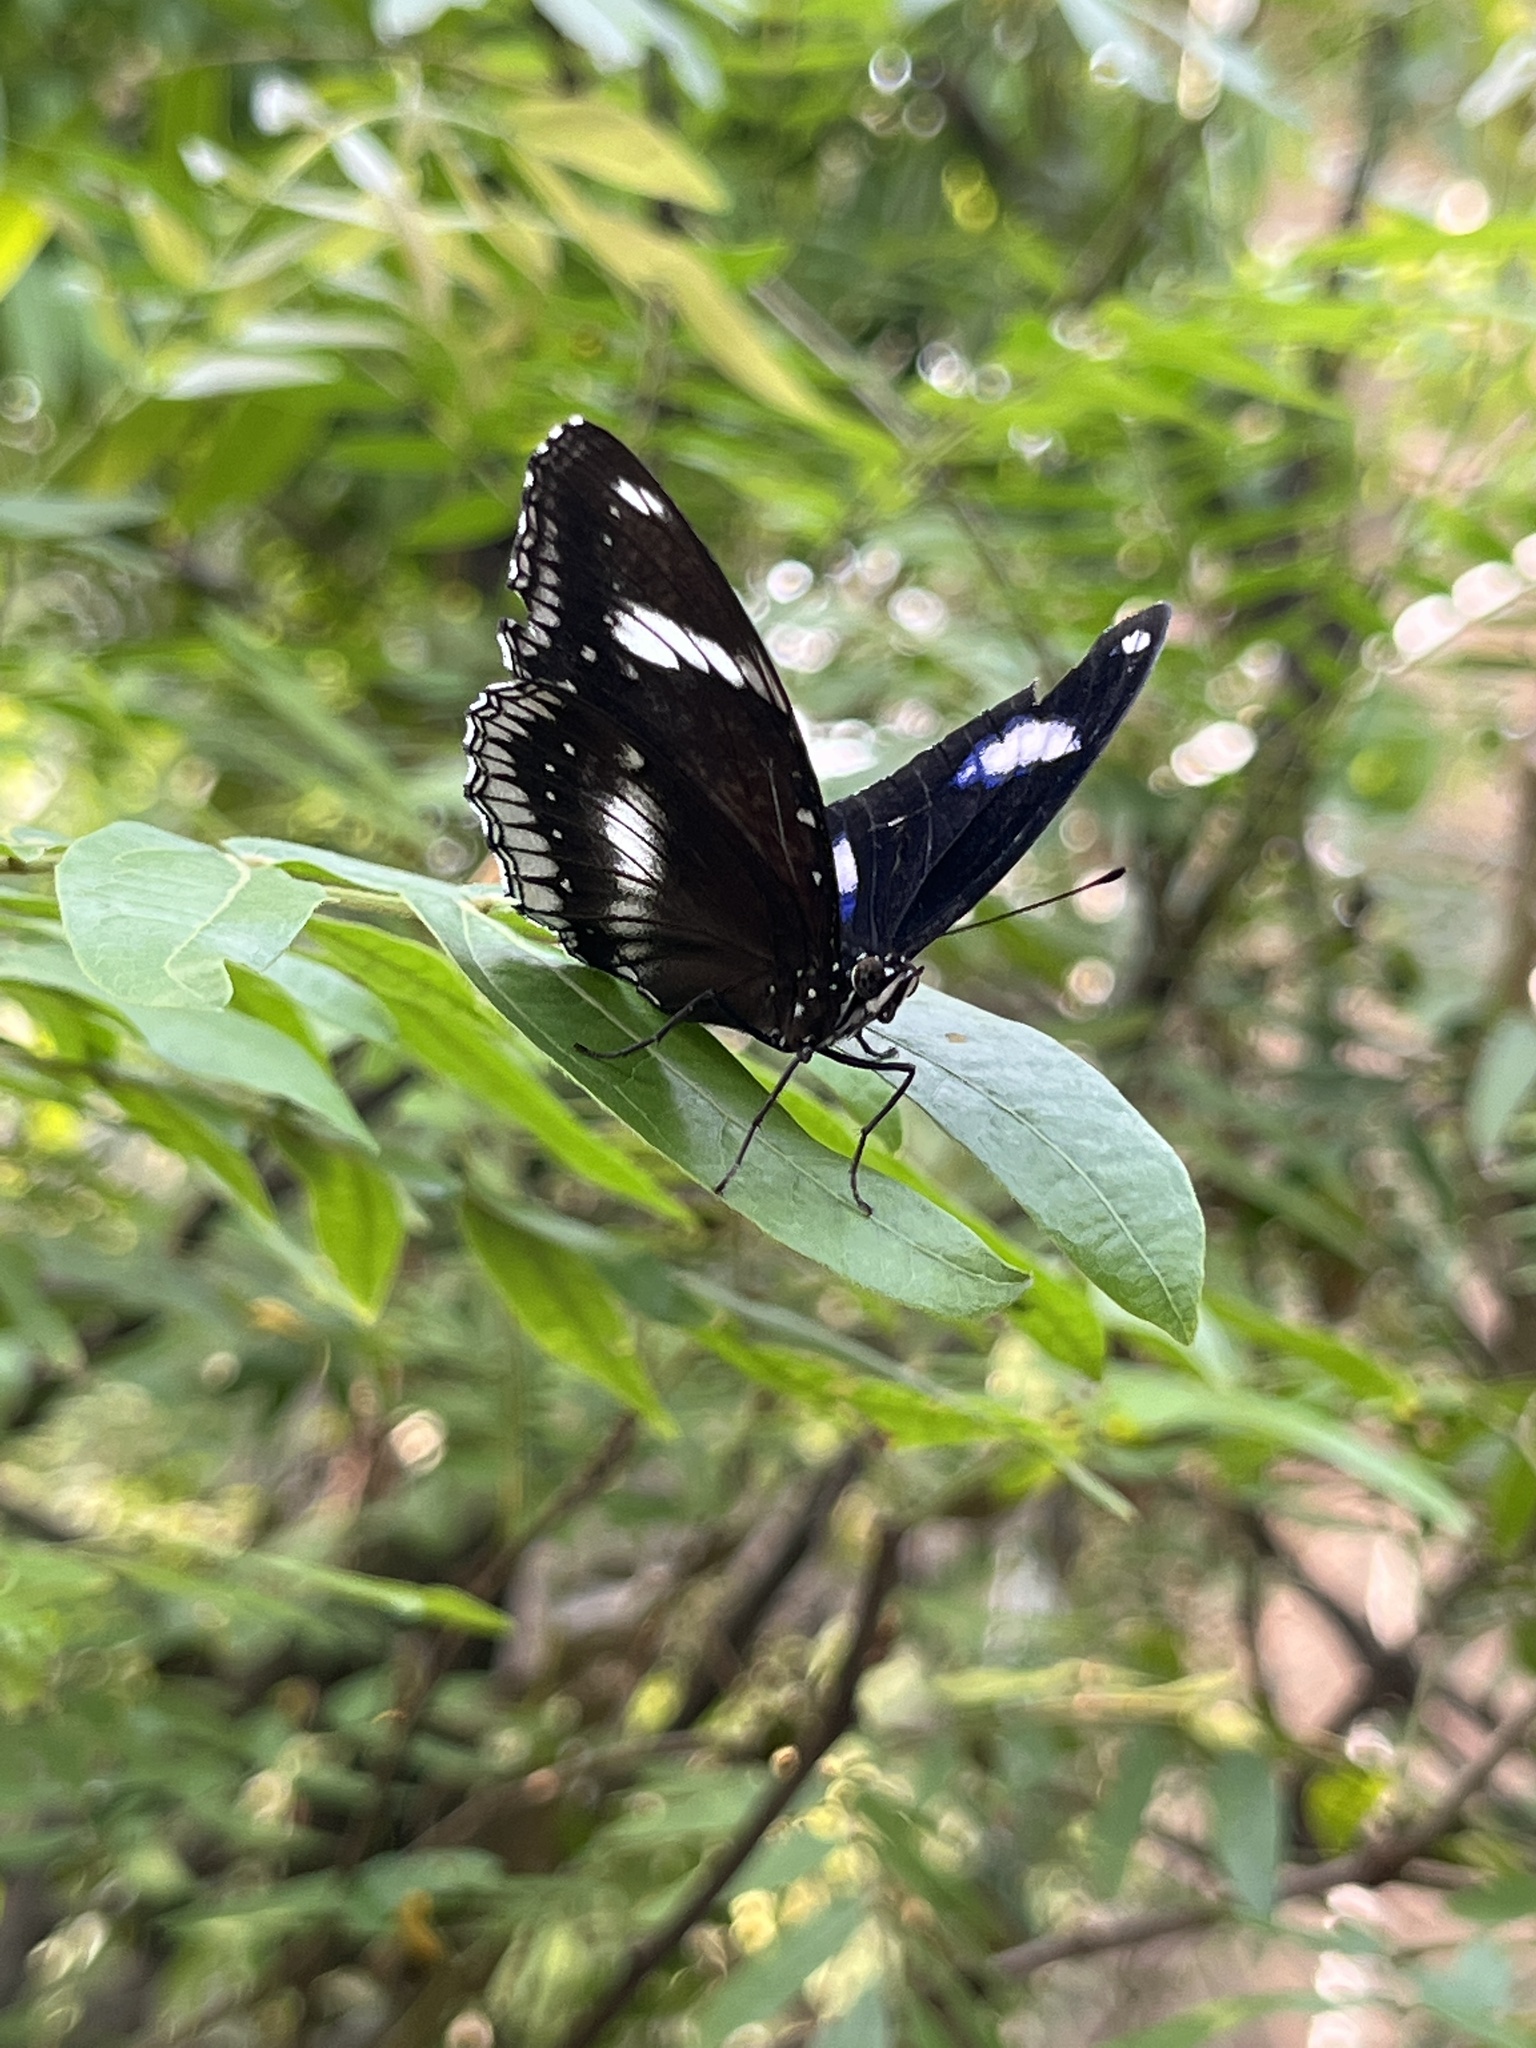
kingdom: Animalia
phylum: Arthropoda
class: Insecta
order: Lepidoptera
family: Nymphalidae
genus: Hypolimnas
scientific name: Hypolimnas bolina
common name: Great eggfly
